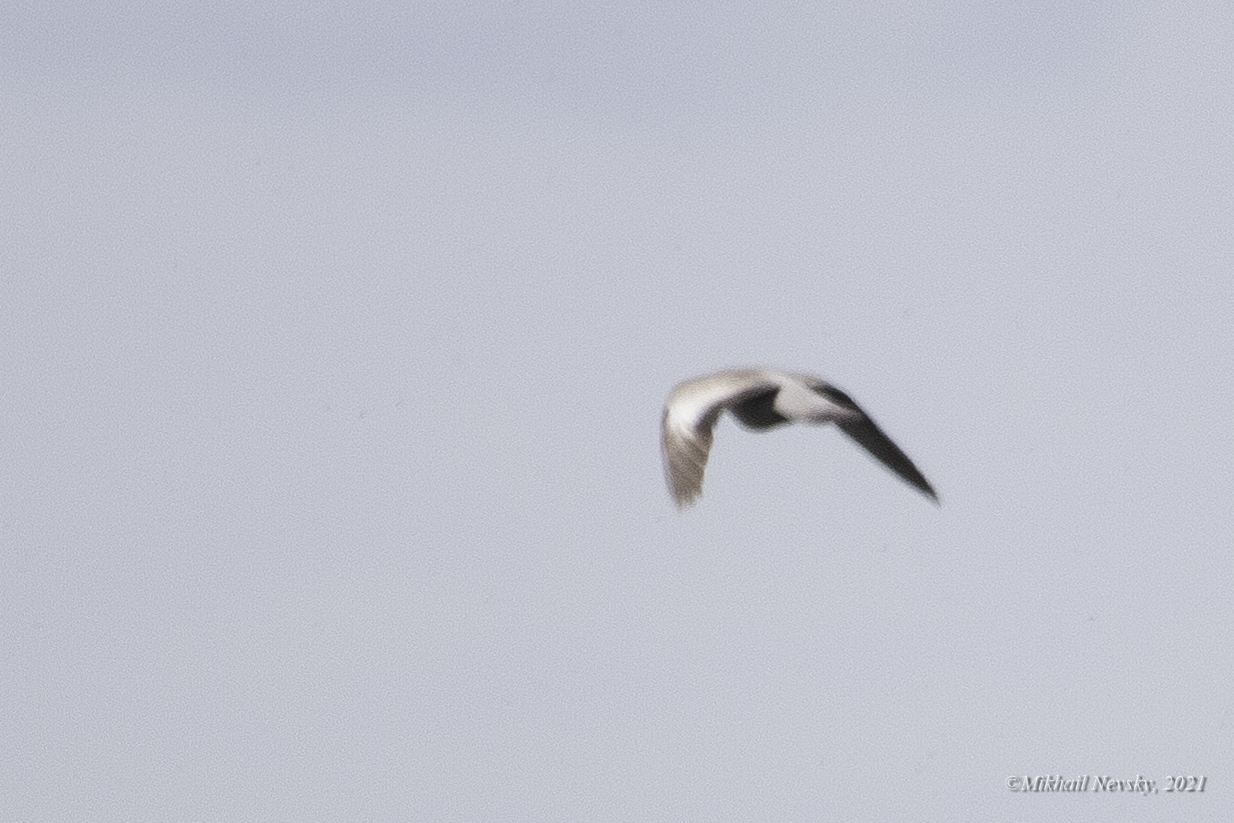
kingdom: Animalia
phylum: Chordata
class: Aves
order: Columbiformes
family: Columbidae
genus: Columba
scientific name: Columba oenas
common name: Stock dove
